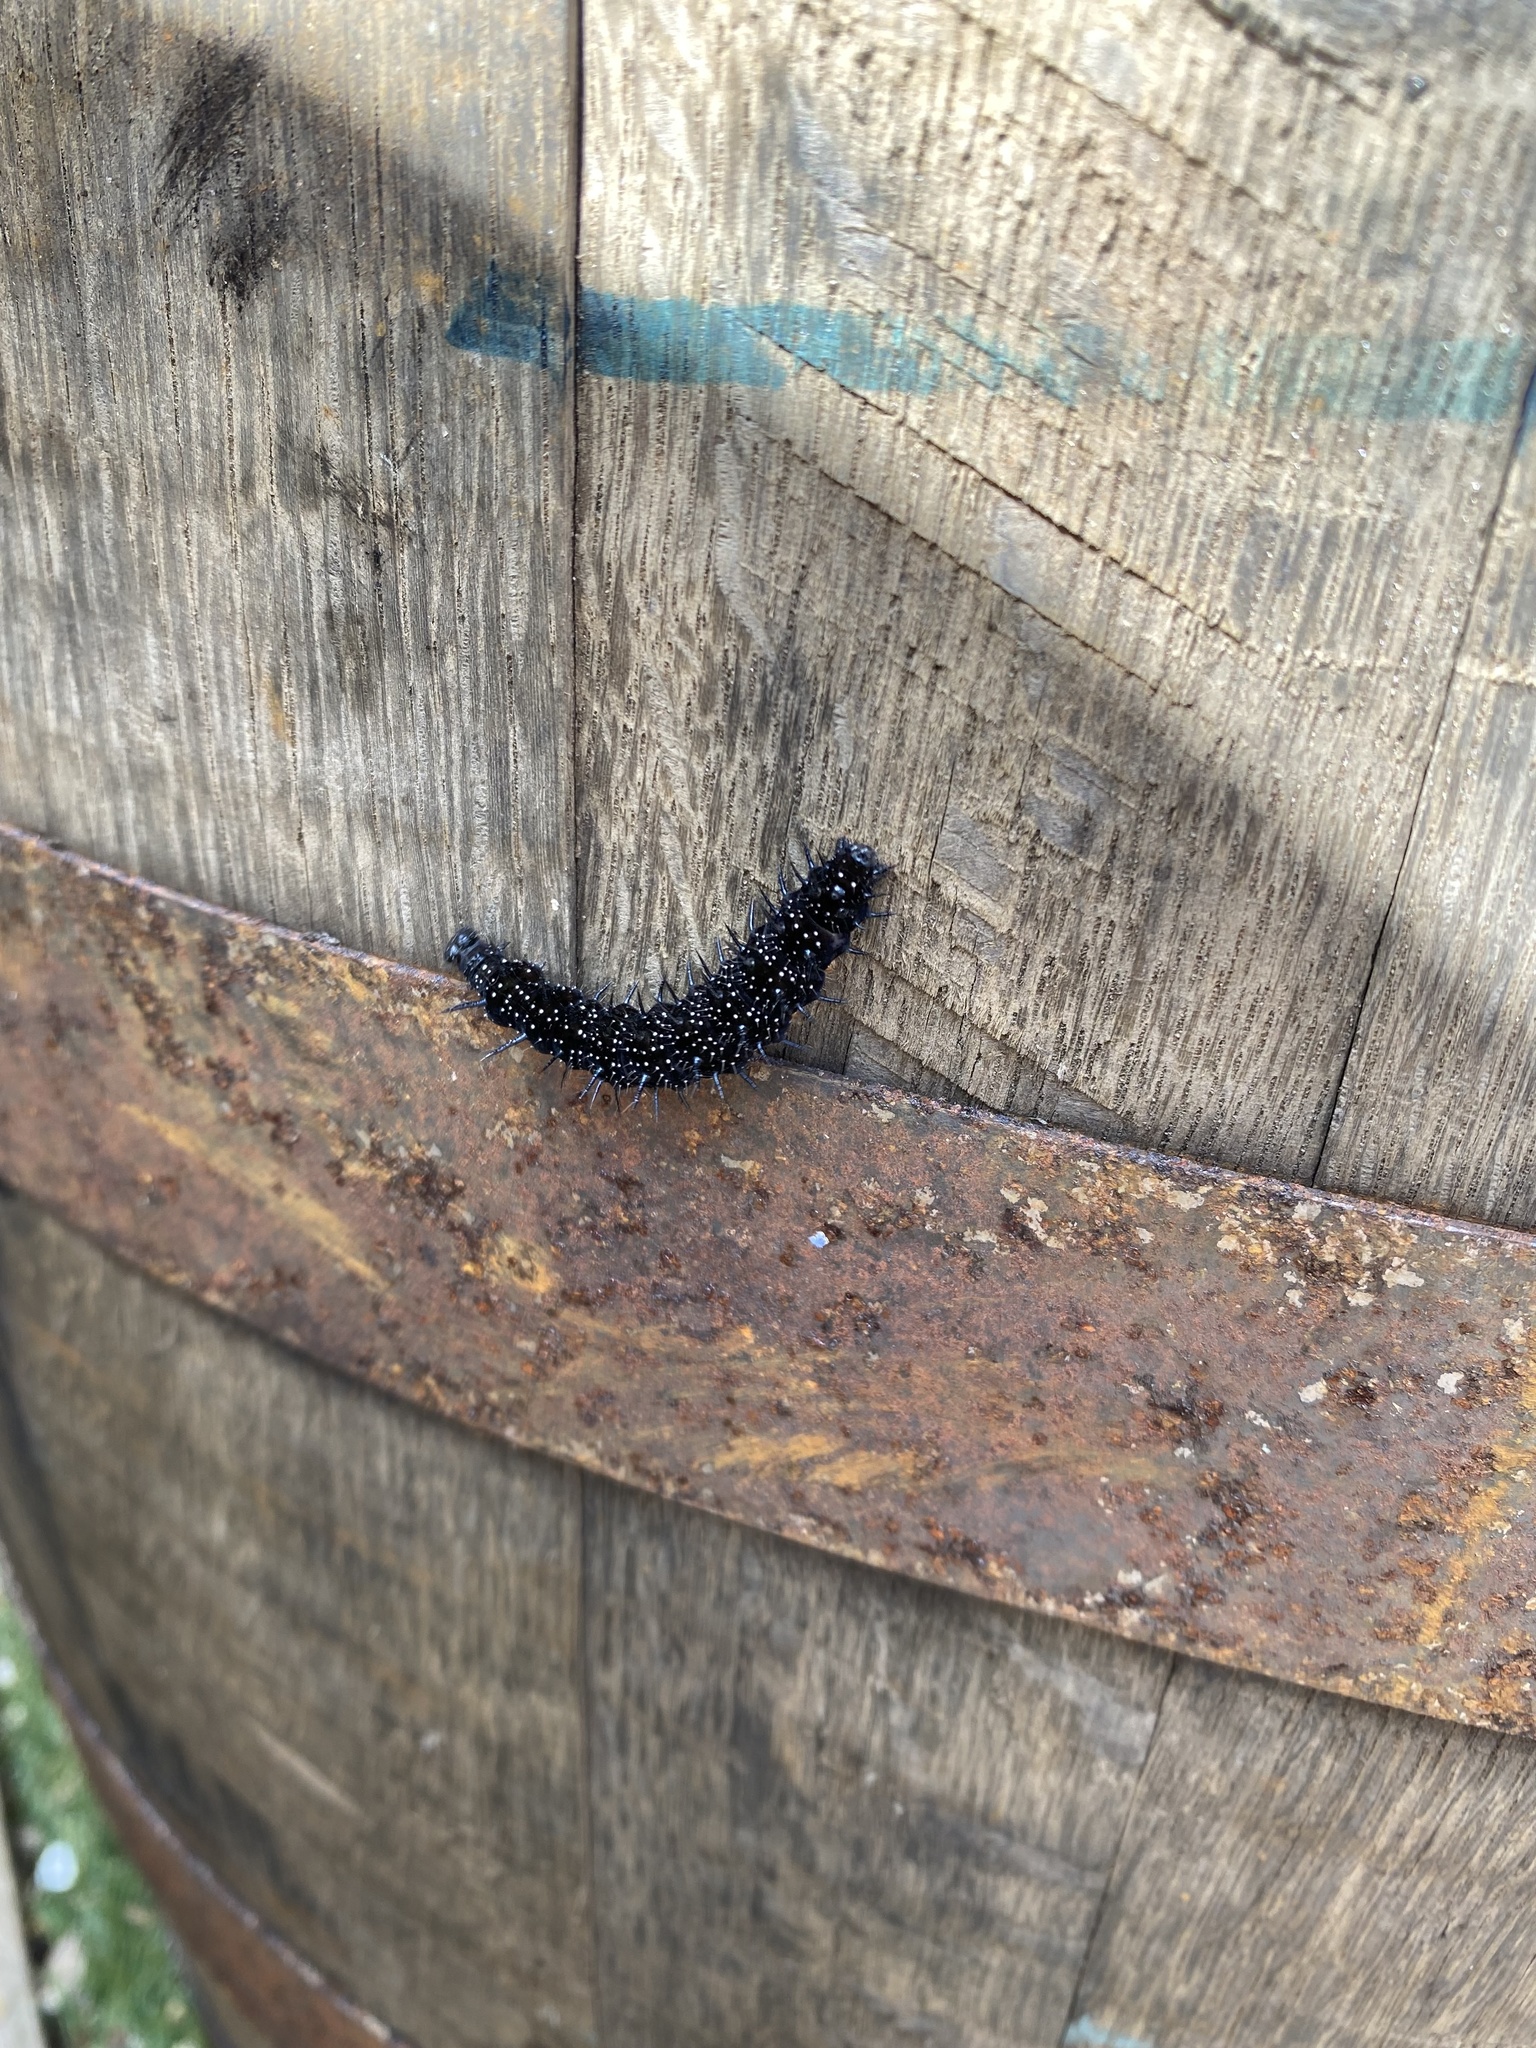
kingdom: Animalia
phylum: Arthropoda
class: Insecta
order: Lepidoptera
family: Nymphalidae
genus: Aglais
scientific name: Aglais io
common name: Peacock
